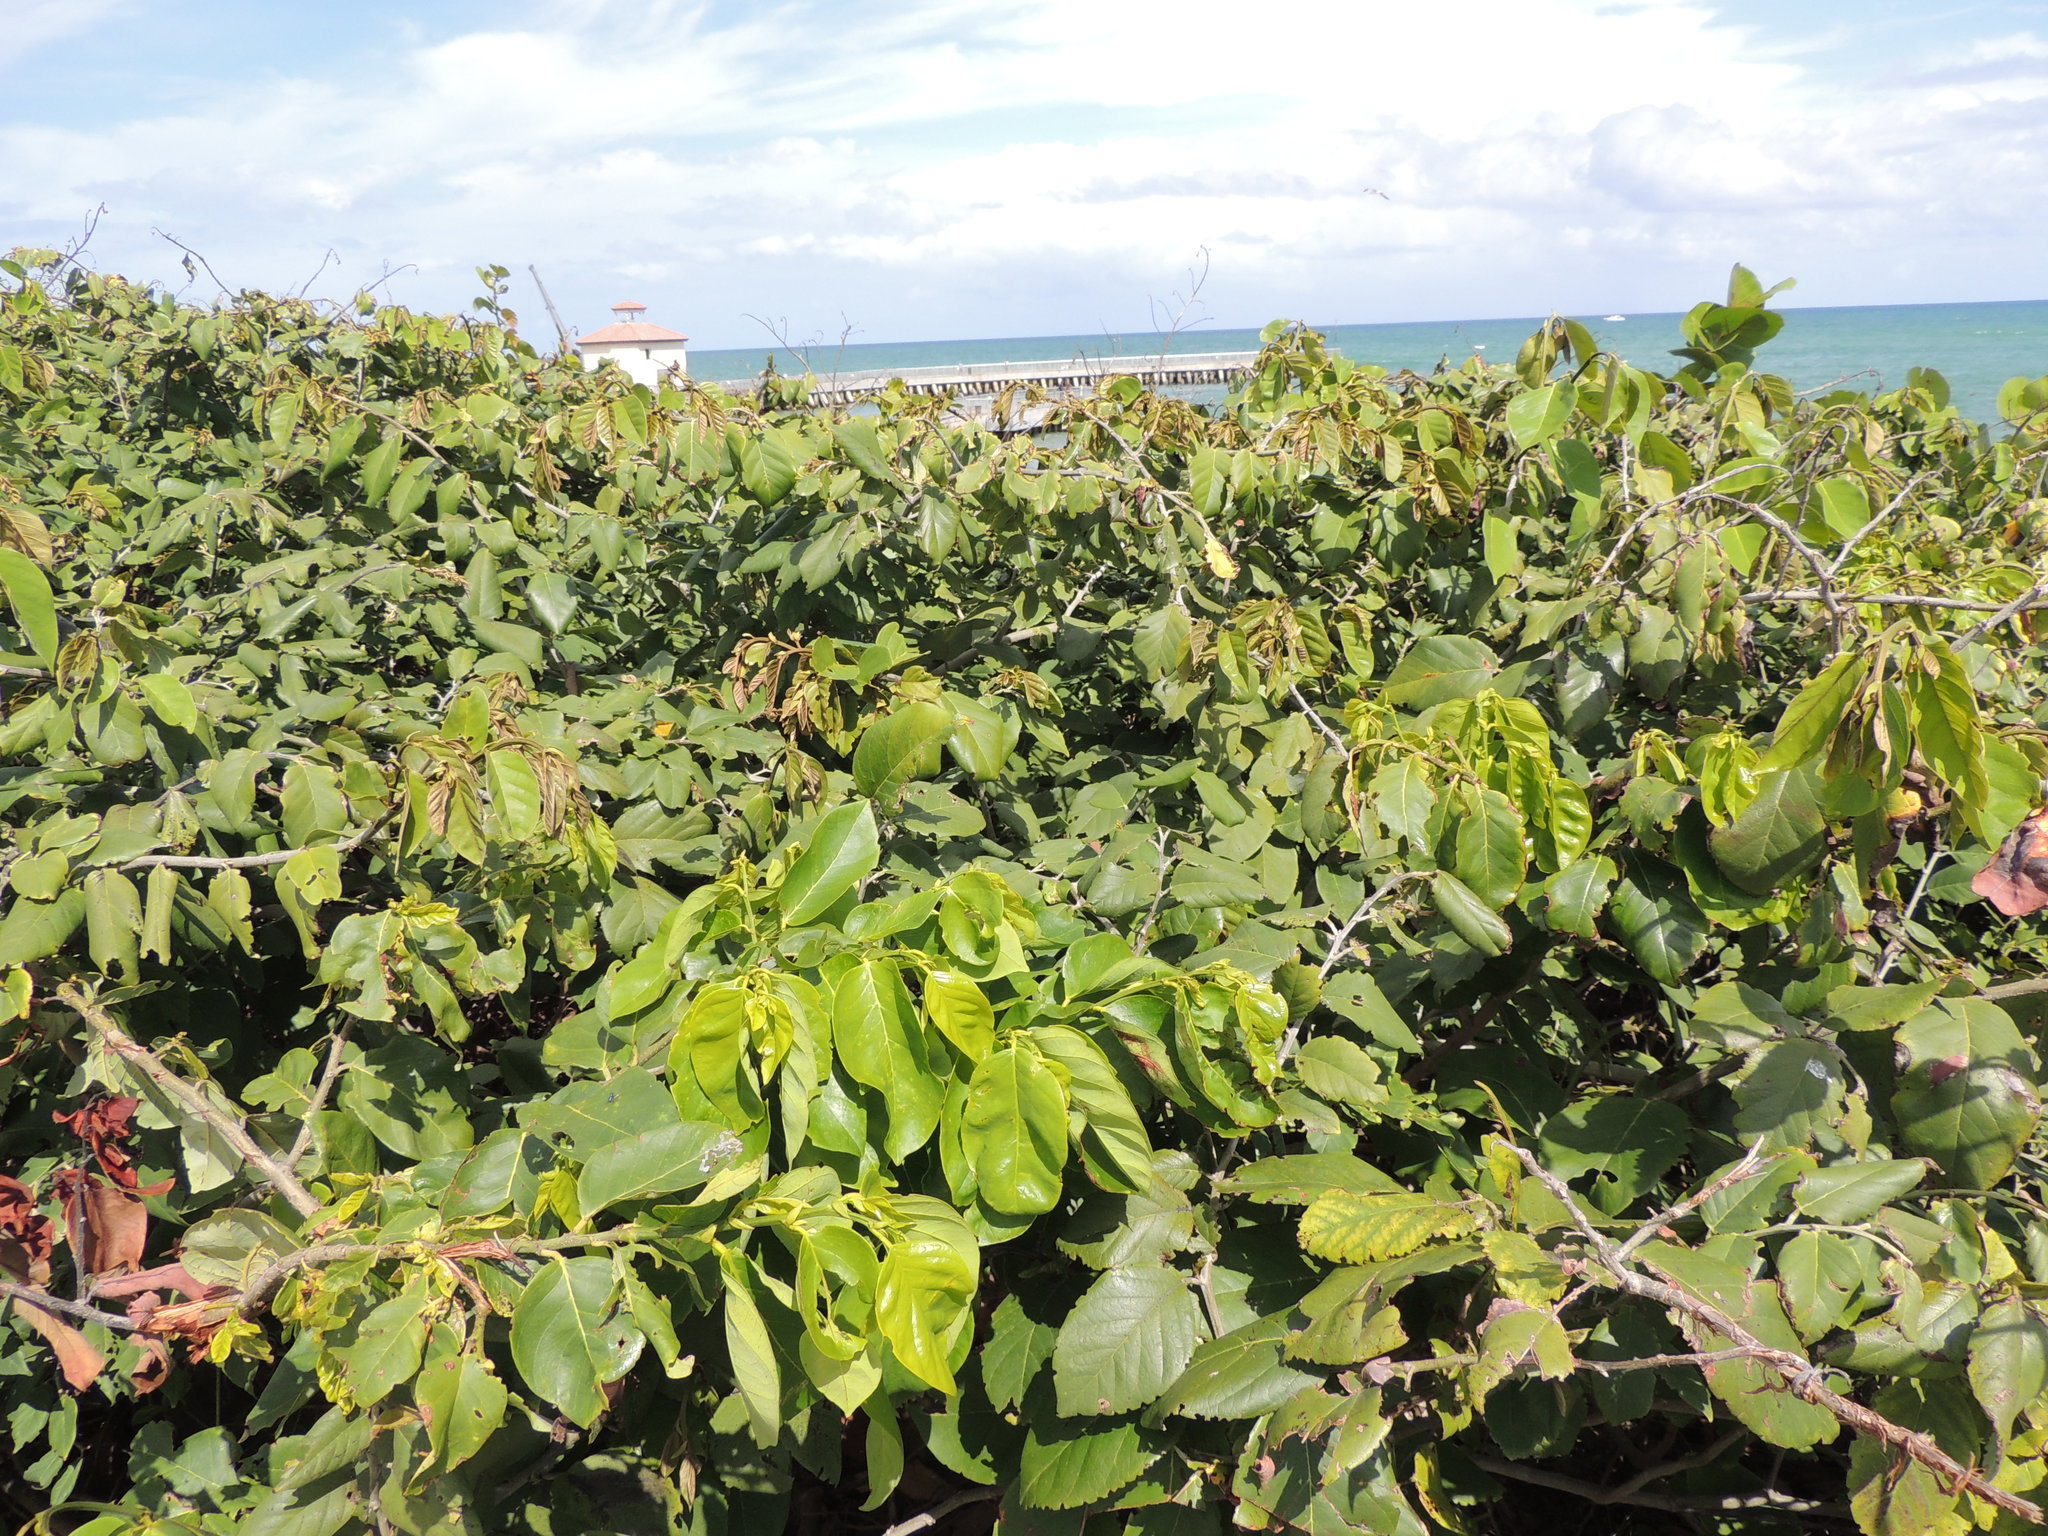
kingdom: Plantae
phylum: Tracheophyta
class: Magnoliopsida
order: Fabales
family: Fabaceae
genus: Dalbergia
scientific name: Dalbergia ecastaphyllum
